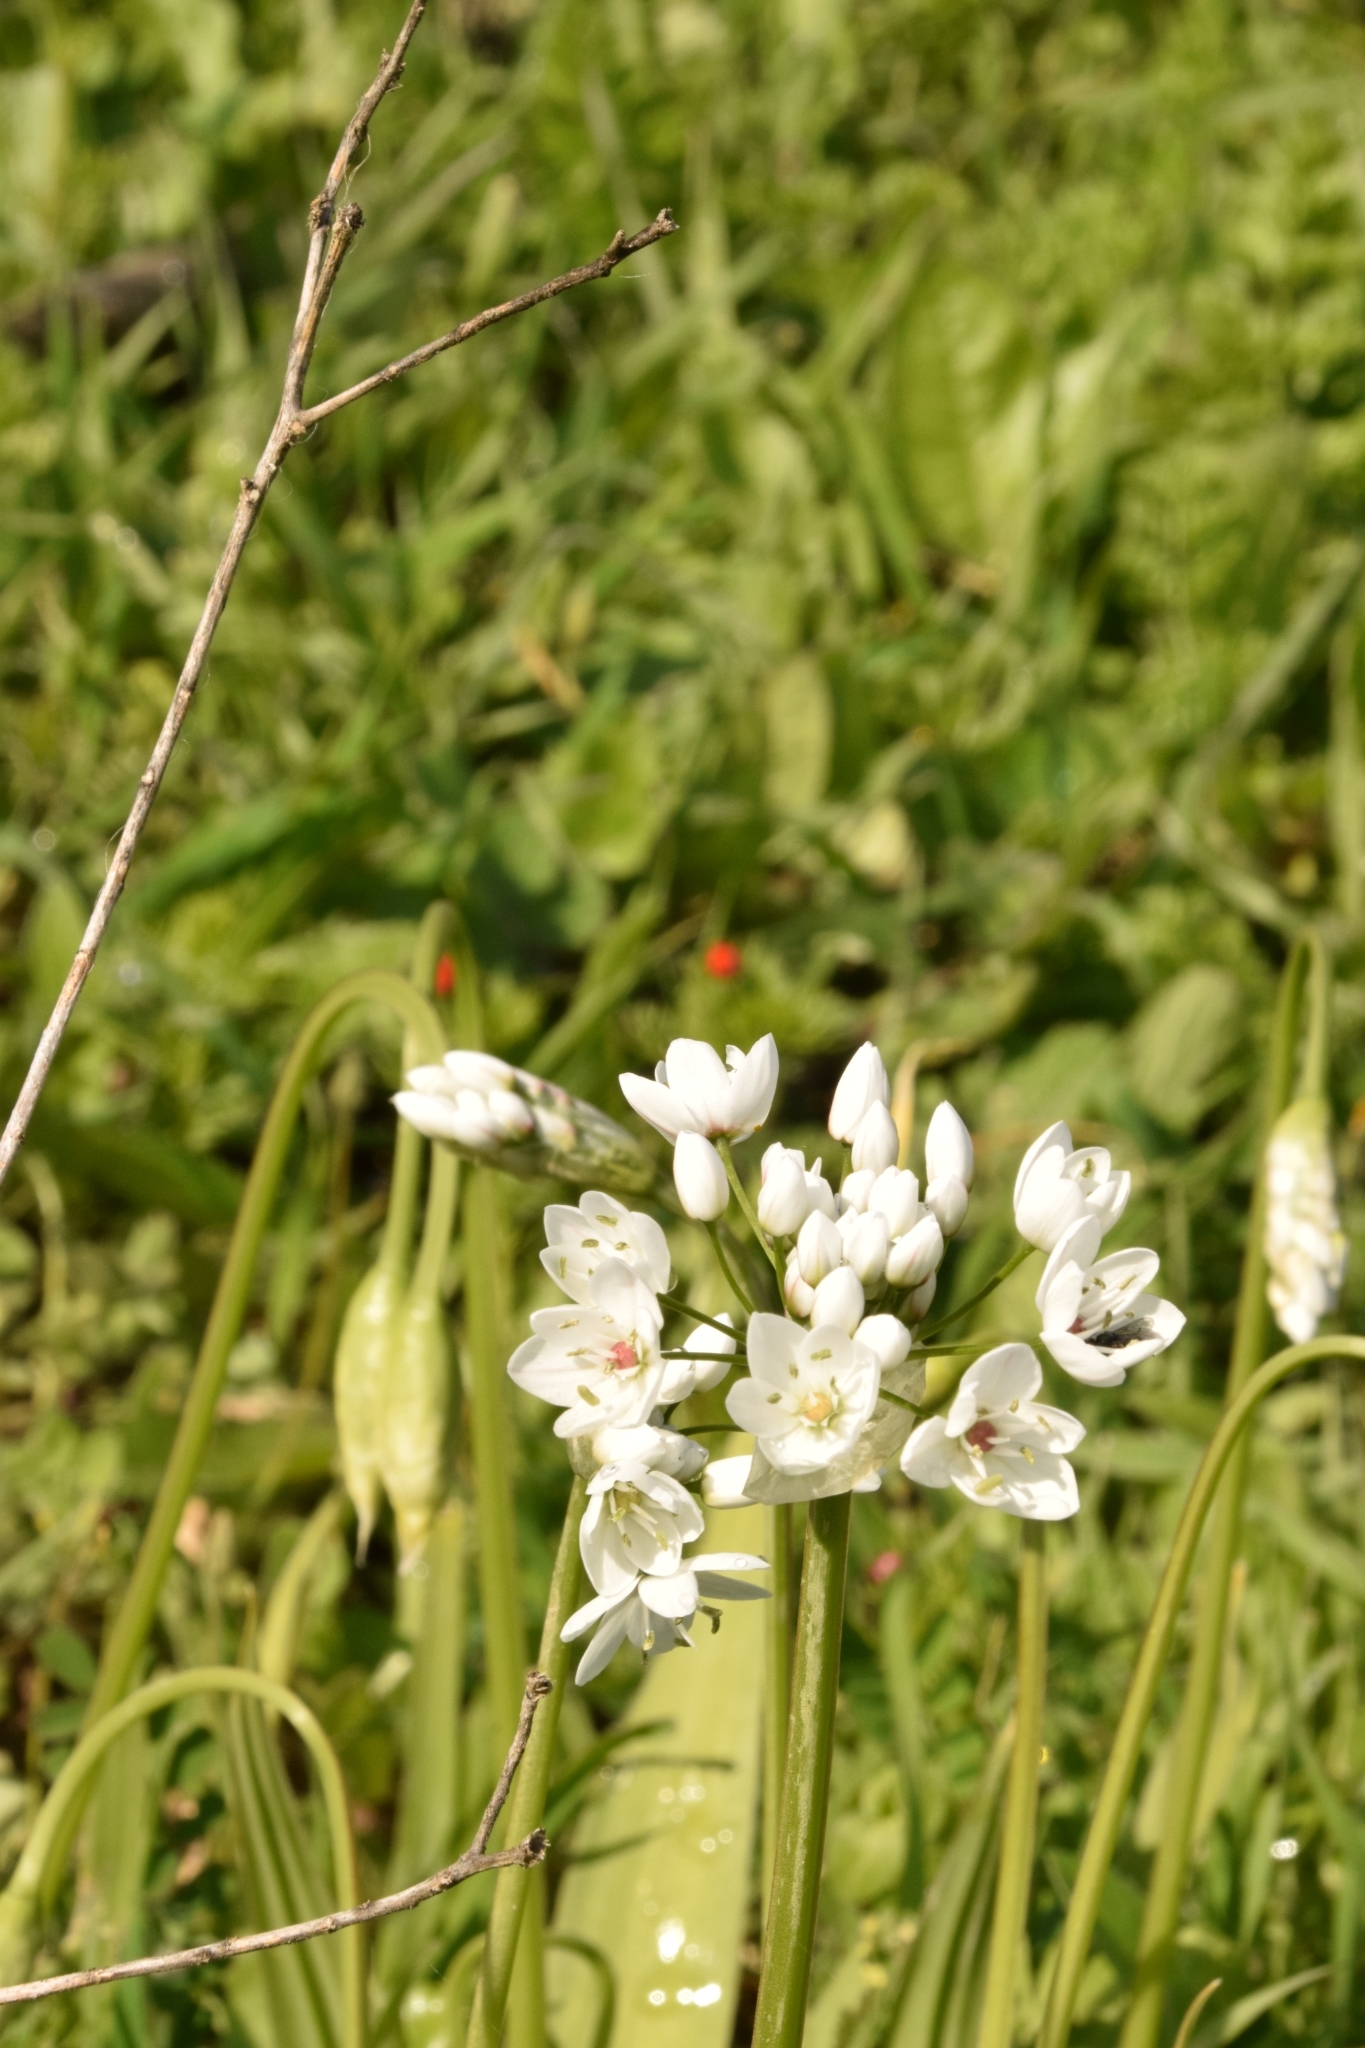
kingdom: Plantae
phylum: Tracheophyta
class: Liliopsida
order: Asparagales
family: Amaryllidaceae
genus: Allium
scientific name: Allium neapolitanum
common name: Neapolitan garlic
